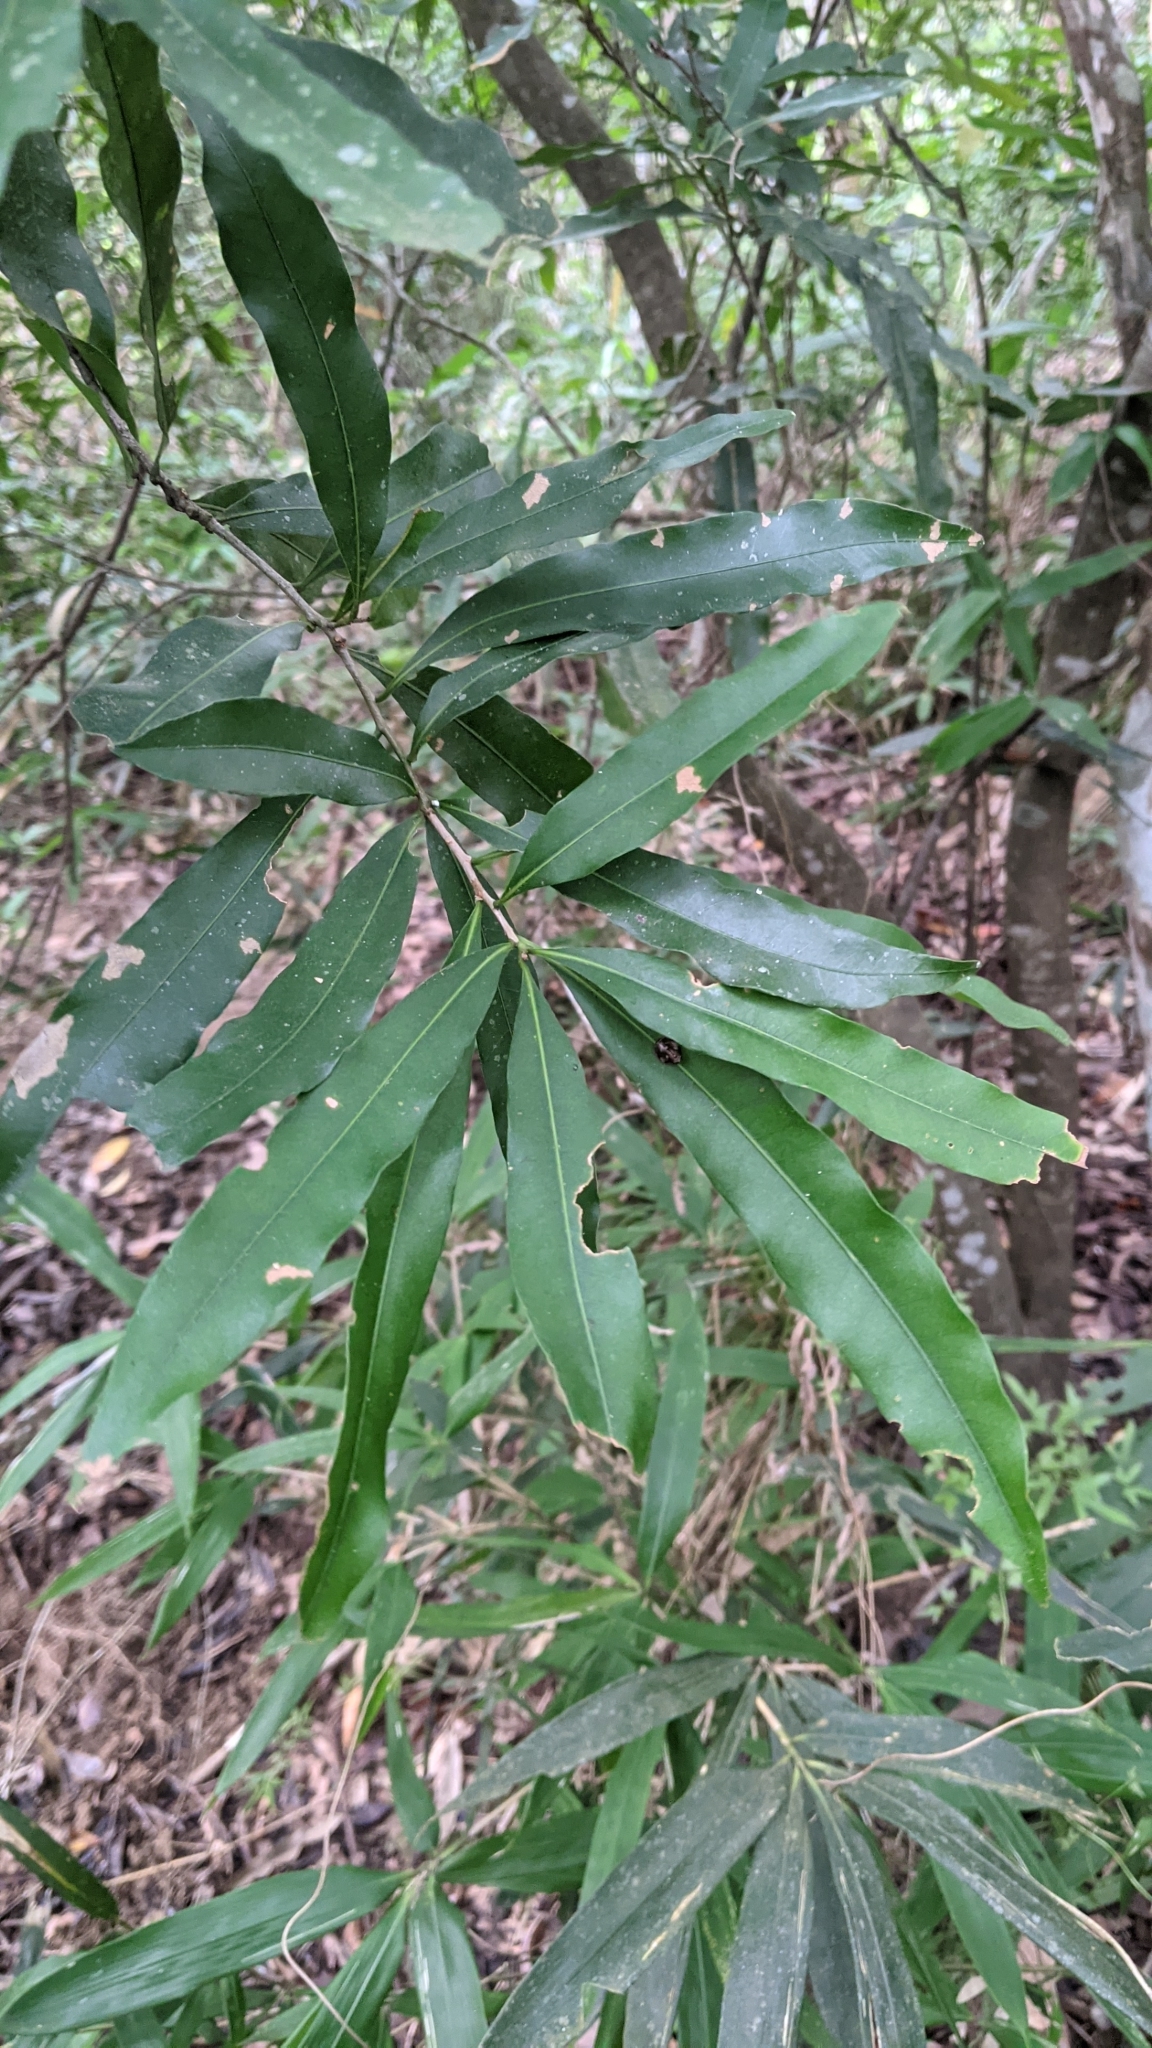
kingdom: Plantae
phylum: Tracheophyta
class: Magnoliopsida
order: Fagales
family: Fagaceae
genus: Lithocarpus
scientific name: Lithocarpus hancei
